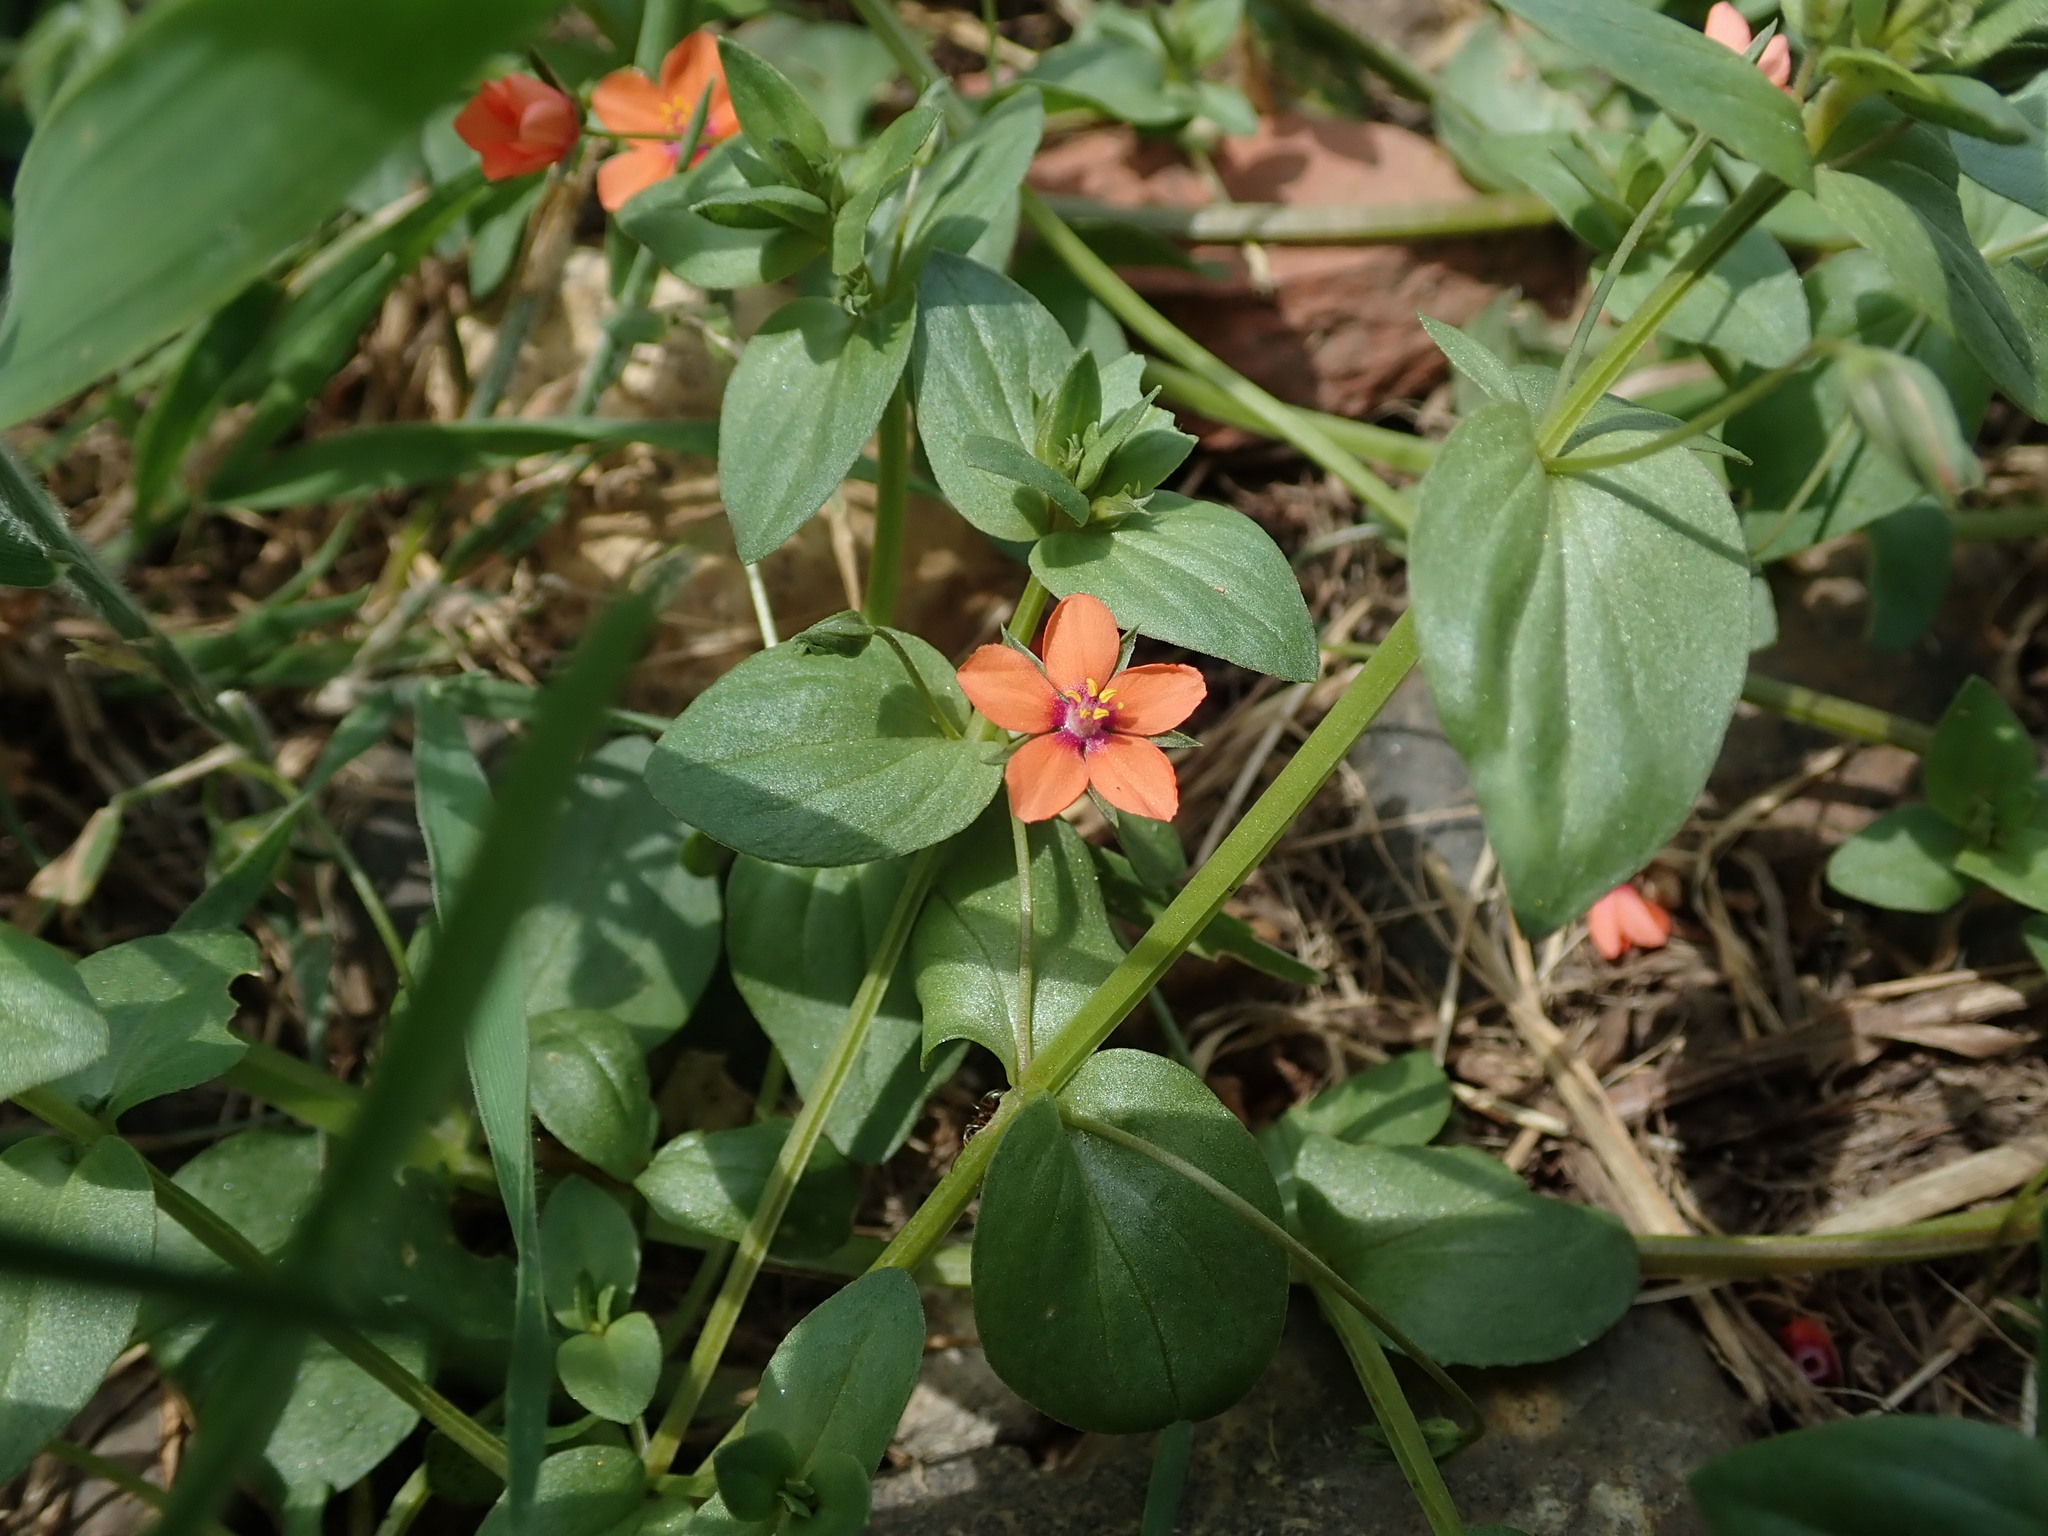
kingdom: Plantae
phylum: Tracheophyta
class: Magnoliopsida
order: Ericales
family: Primulaceae
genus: Lysimachia
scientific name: Lysimachia arvensis
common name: Scarlet pimpernel
